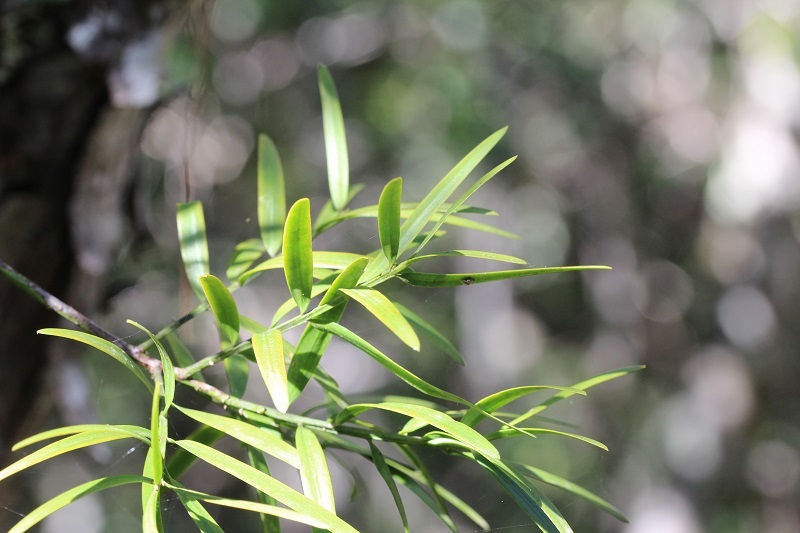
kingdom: Plantae
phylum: Tracheophyta
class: Pinopsida
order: Pinales
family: Podocarpaceae
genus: Afrocarpus
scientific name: Afrocarpus falcatus
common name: Bastard yellowwood
